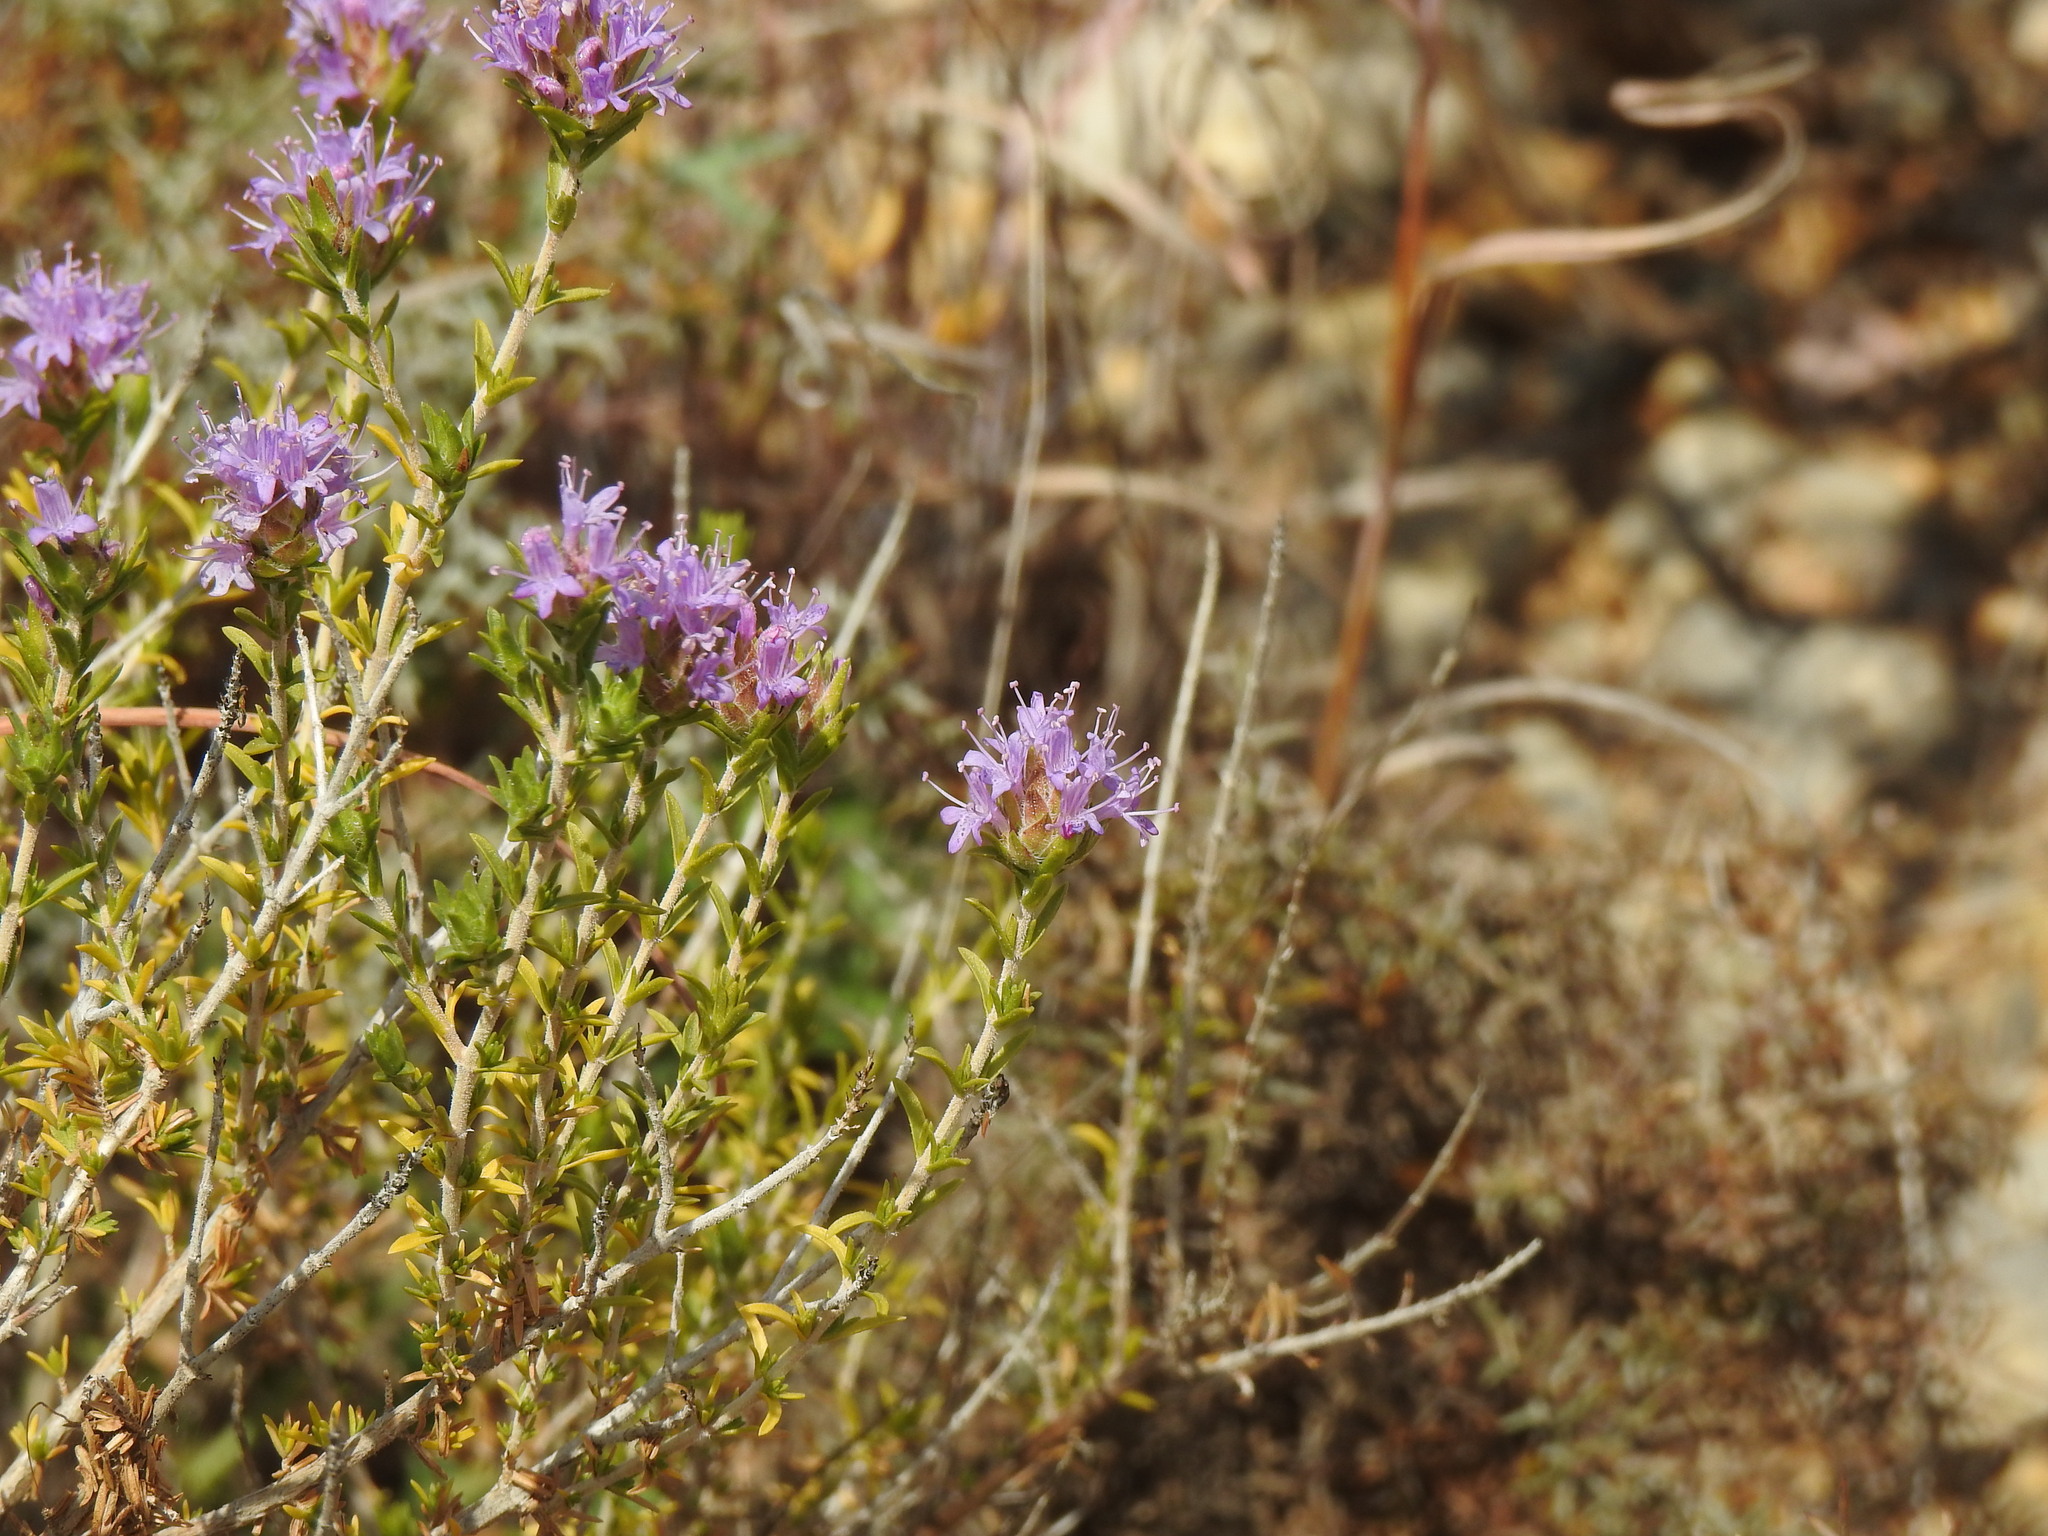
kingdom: Plantae
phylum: Tracheophyta
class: Magnoliopsida
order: Lamiales
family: Lamiaceae
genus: Thymbra
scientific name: Thymbra capitata
